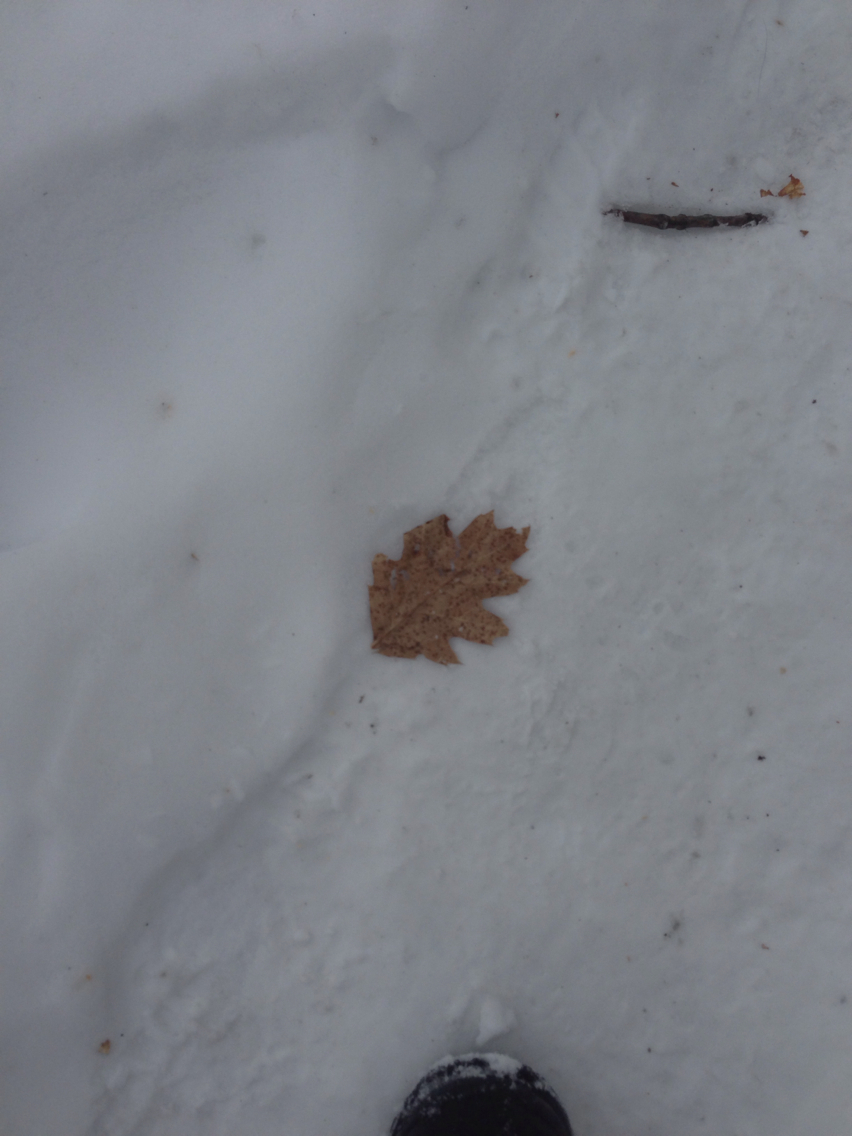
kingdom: Plantae
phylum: Tracheophyta
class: Magnoliopsida
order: Fagales
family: Fagaceae
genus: Quercus
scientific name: Quercus rubra
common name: Red oak
